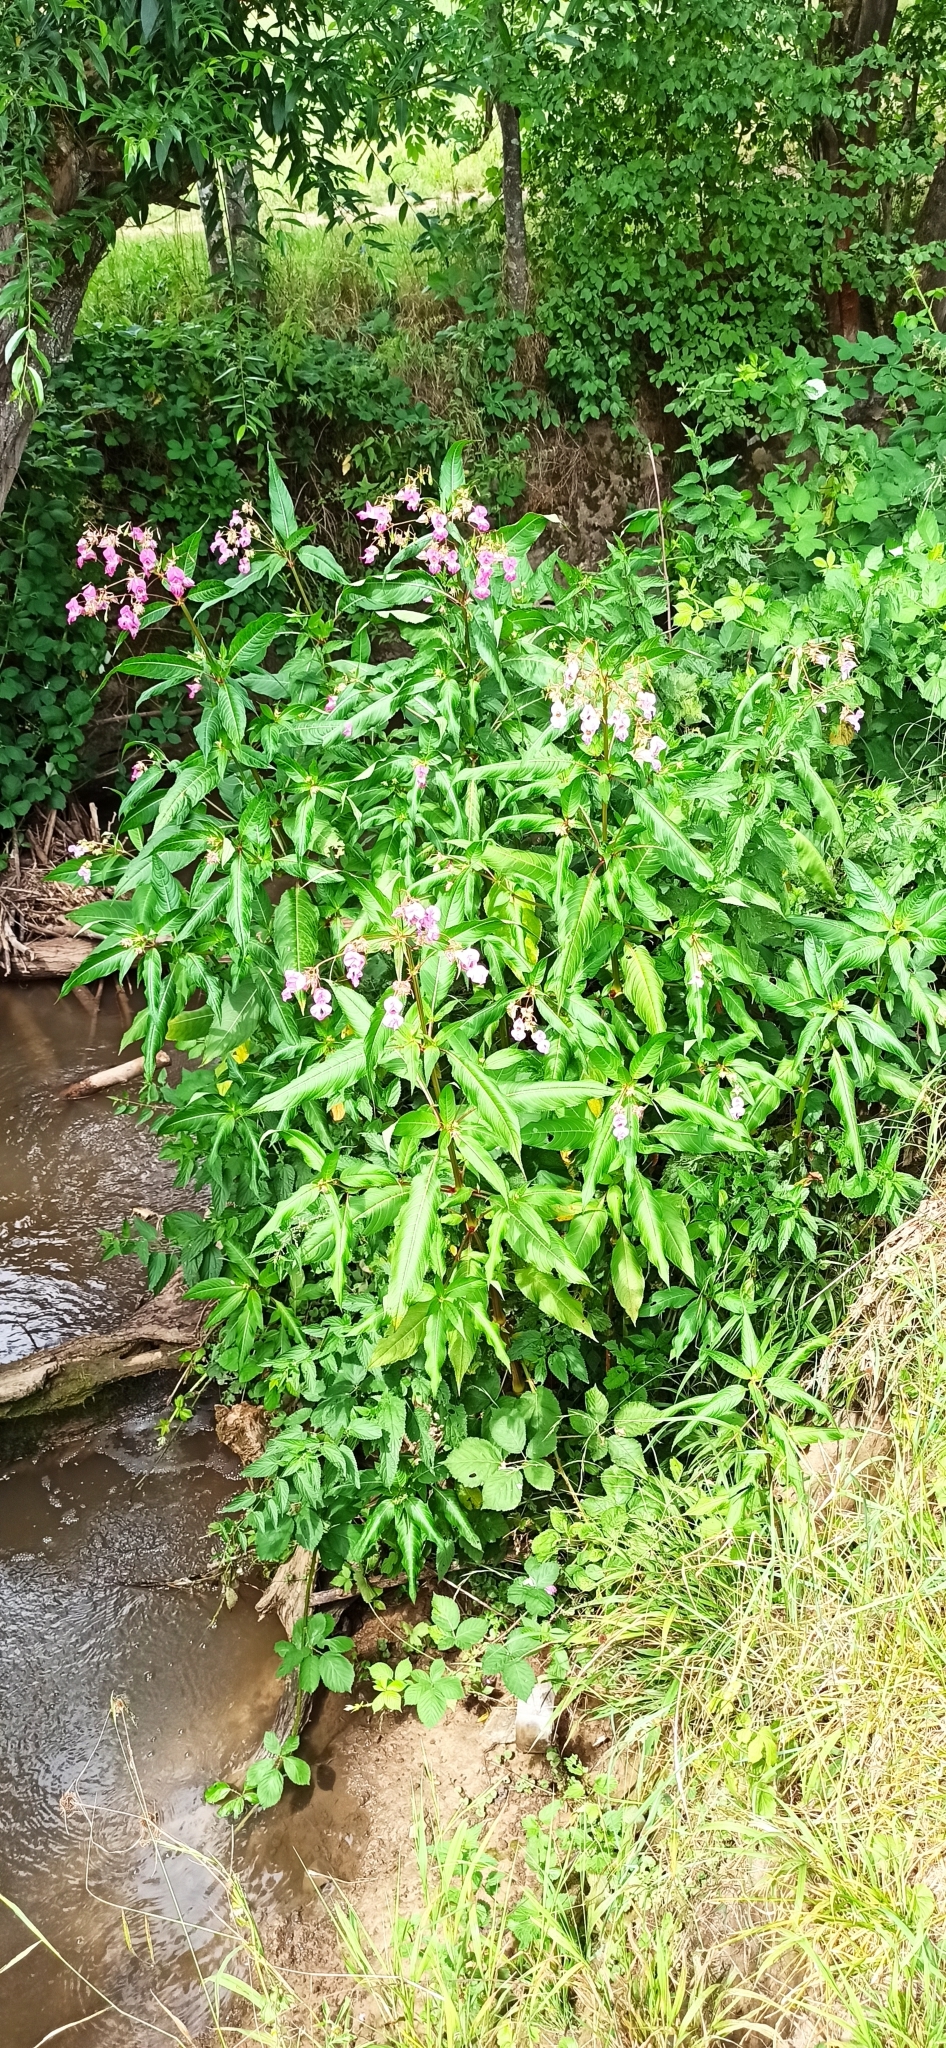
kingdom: Plantae
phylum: Tracheophyta
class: Magnoliopsida
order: Ericales
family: Balsaminaceae
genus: Impatiens
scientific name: Impatiens glandulifera
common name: Himalayan balsam
